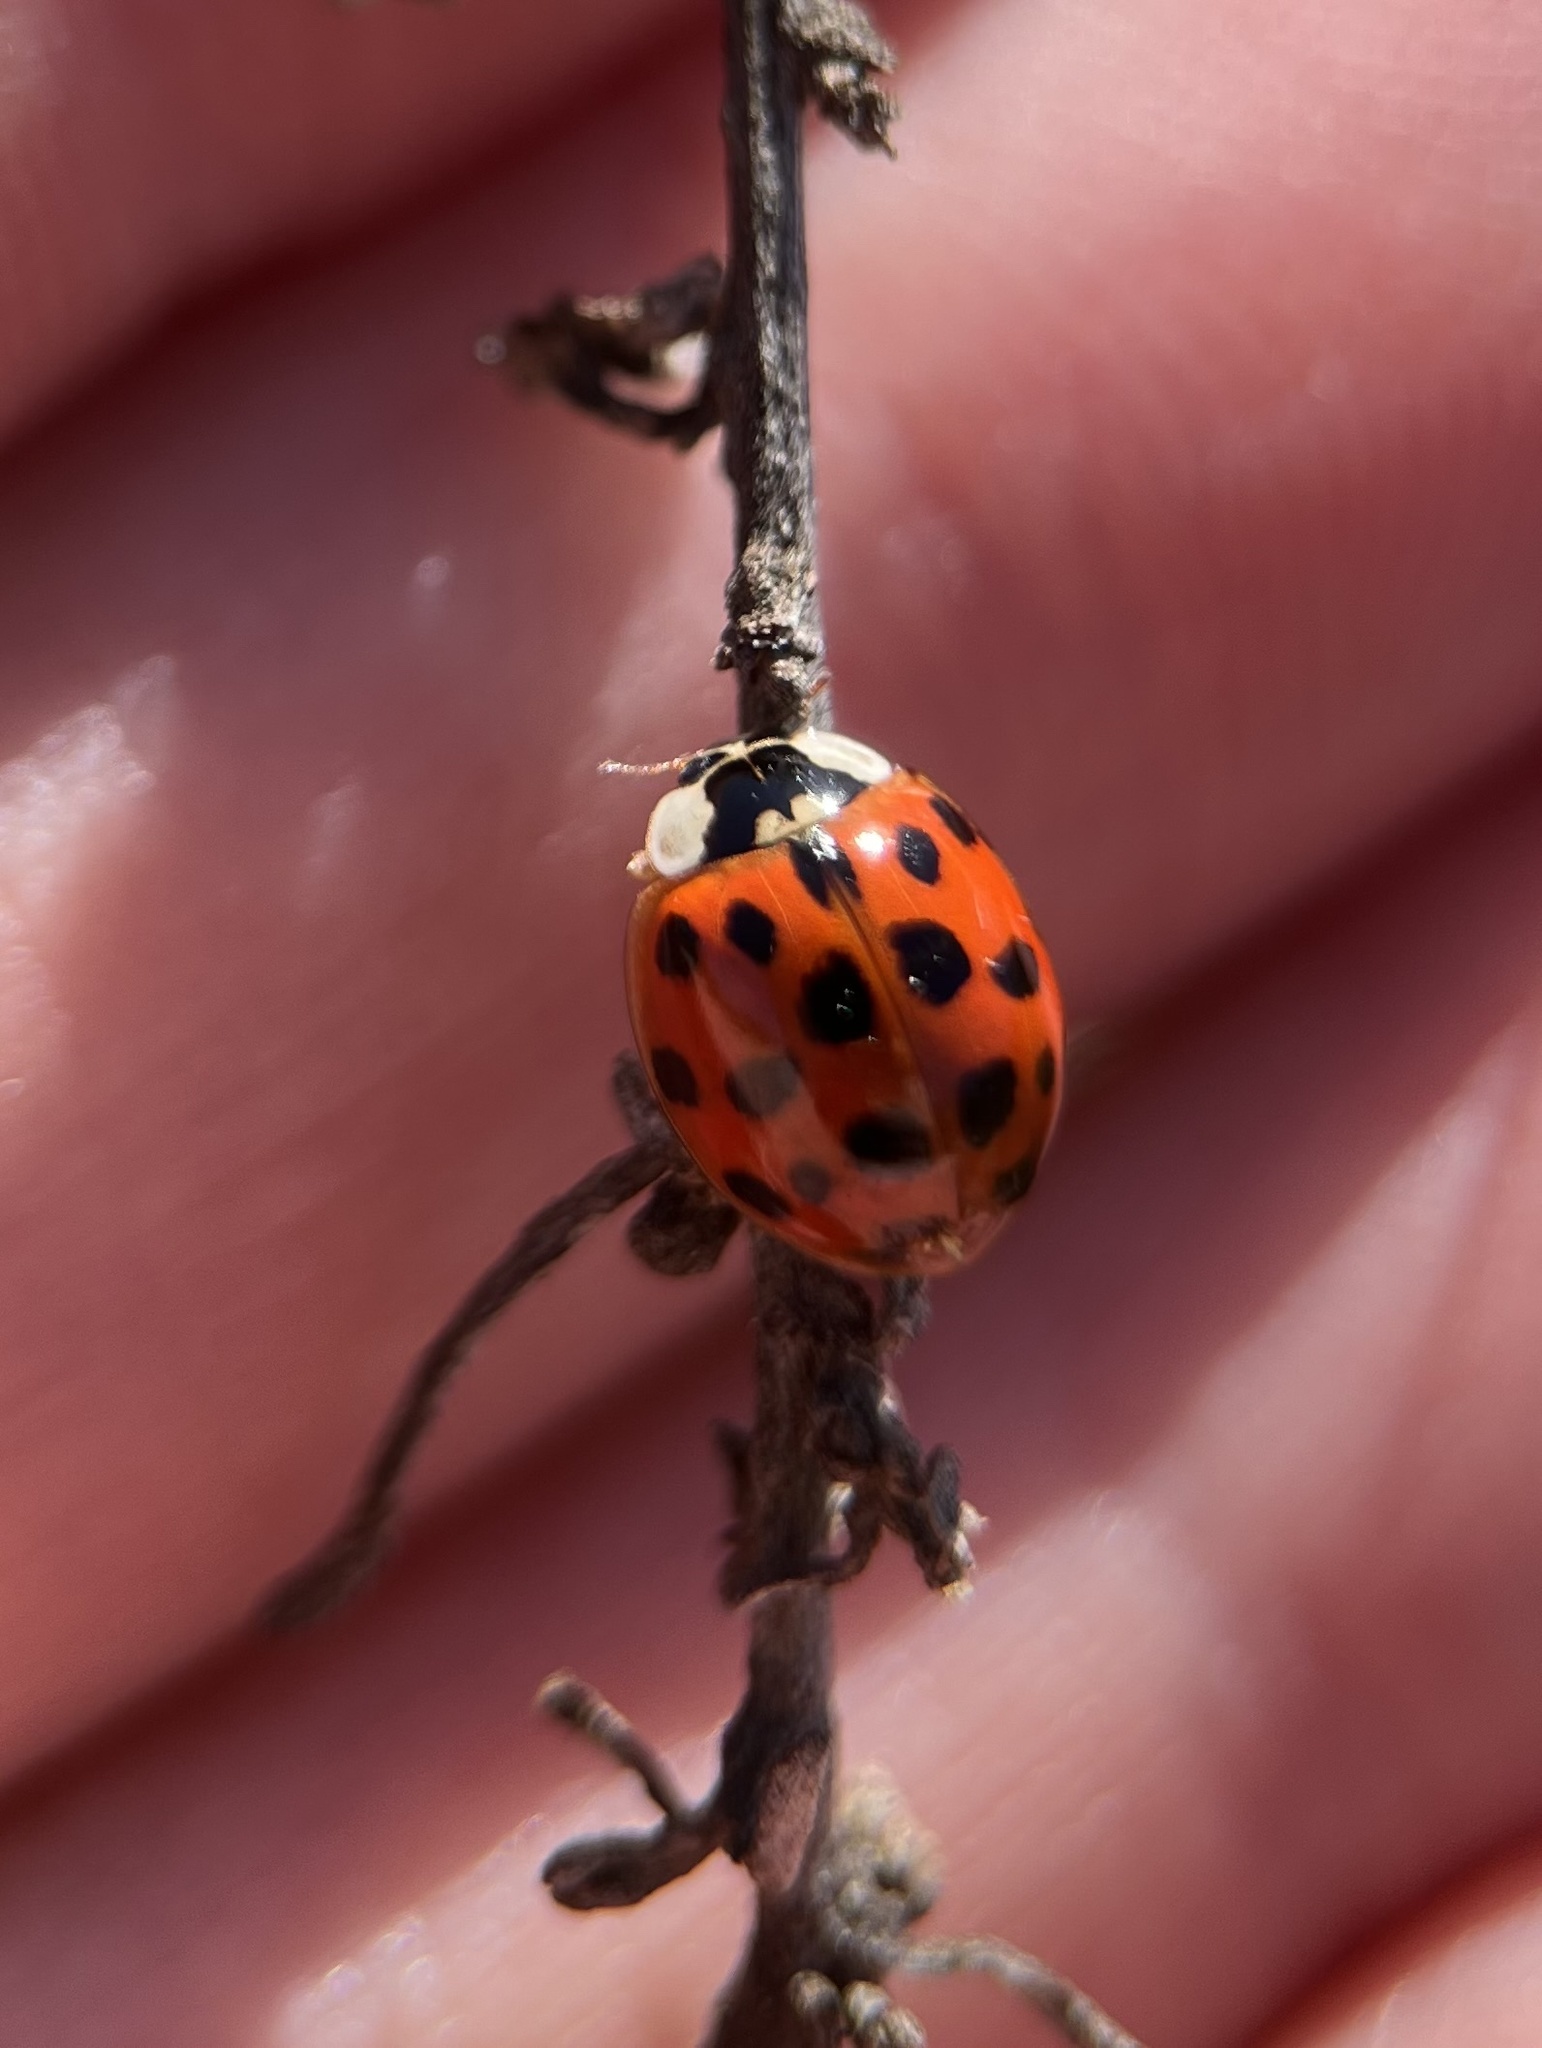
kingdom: Animalia
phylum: Arthropoda
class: Insecta
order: Coleoptera
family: Coccinellidae
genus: Harmonia
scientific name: Harmonia axyridis
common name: Harlequin ladybird
